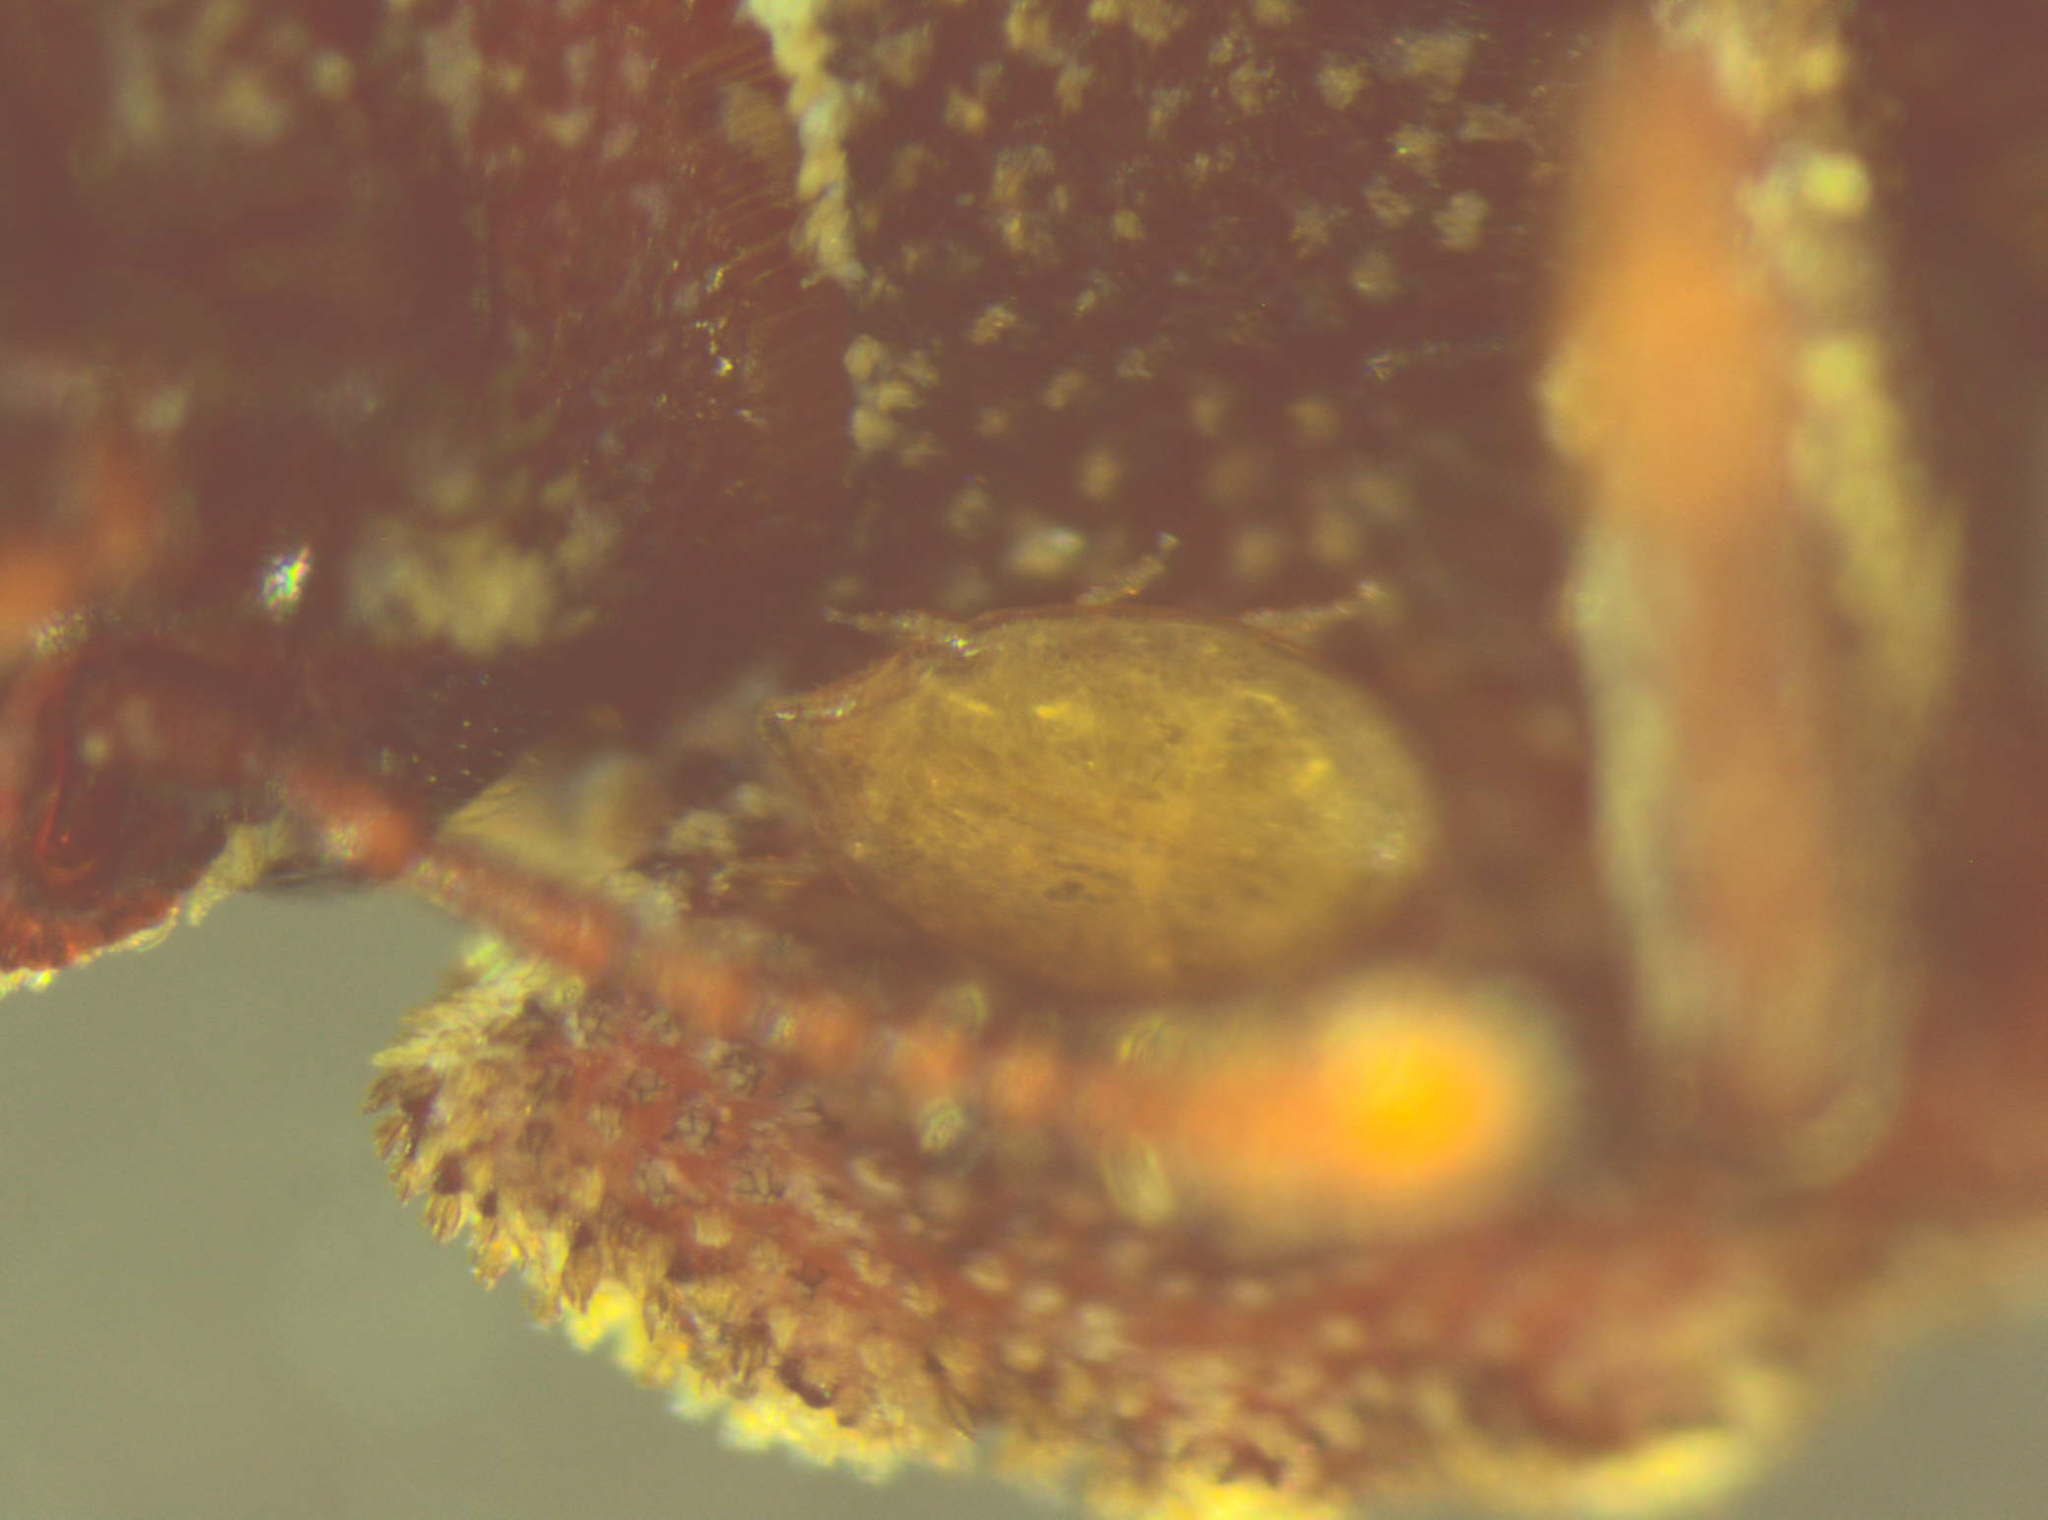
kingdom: Animalia
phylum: Arthropoda
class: Insecta
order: Coleoptera
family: Zopheridae
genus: Pristoderus
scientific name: Pristoderus
